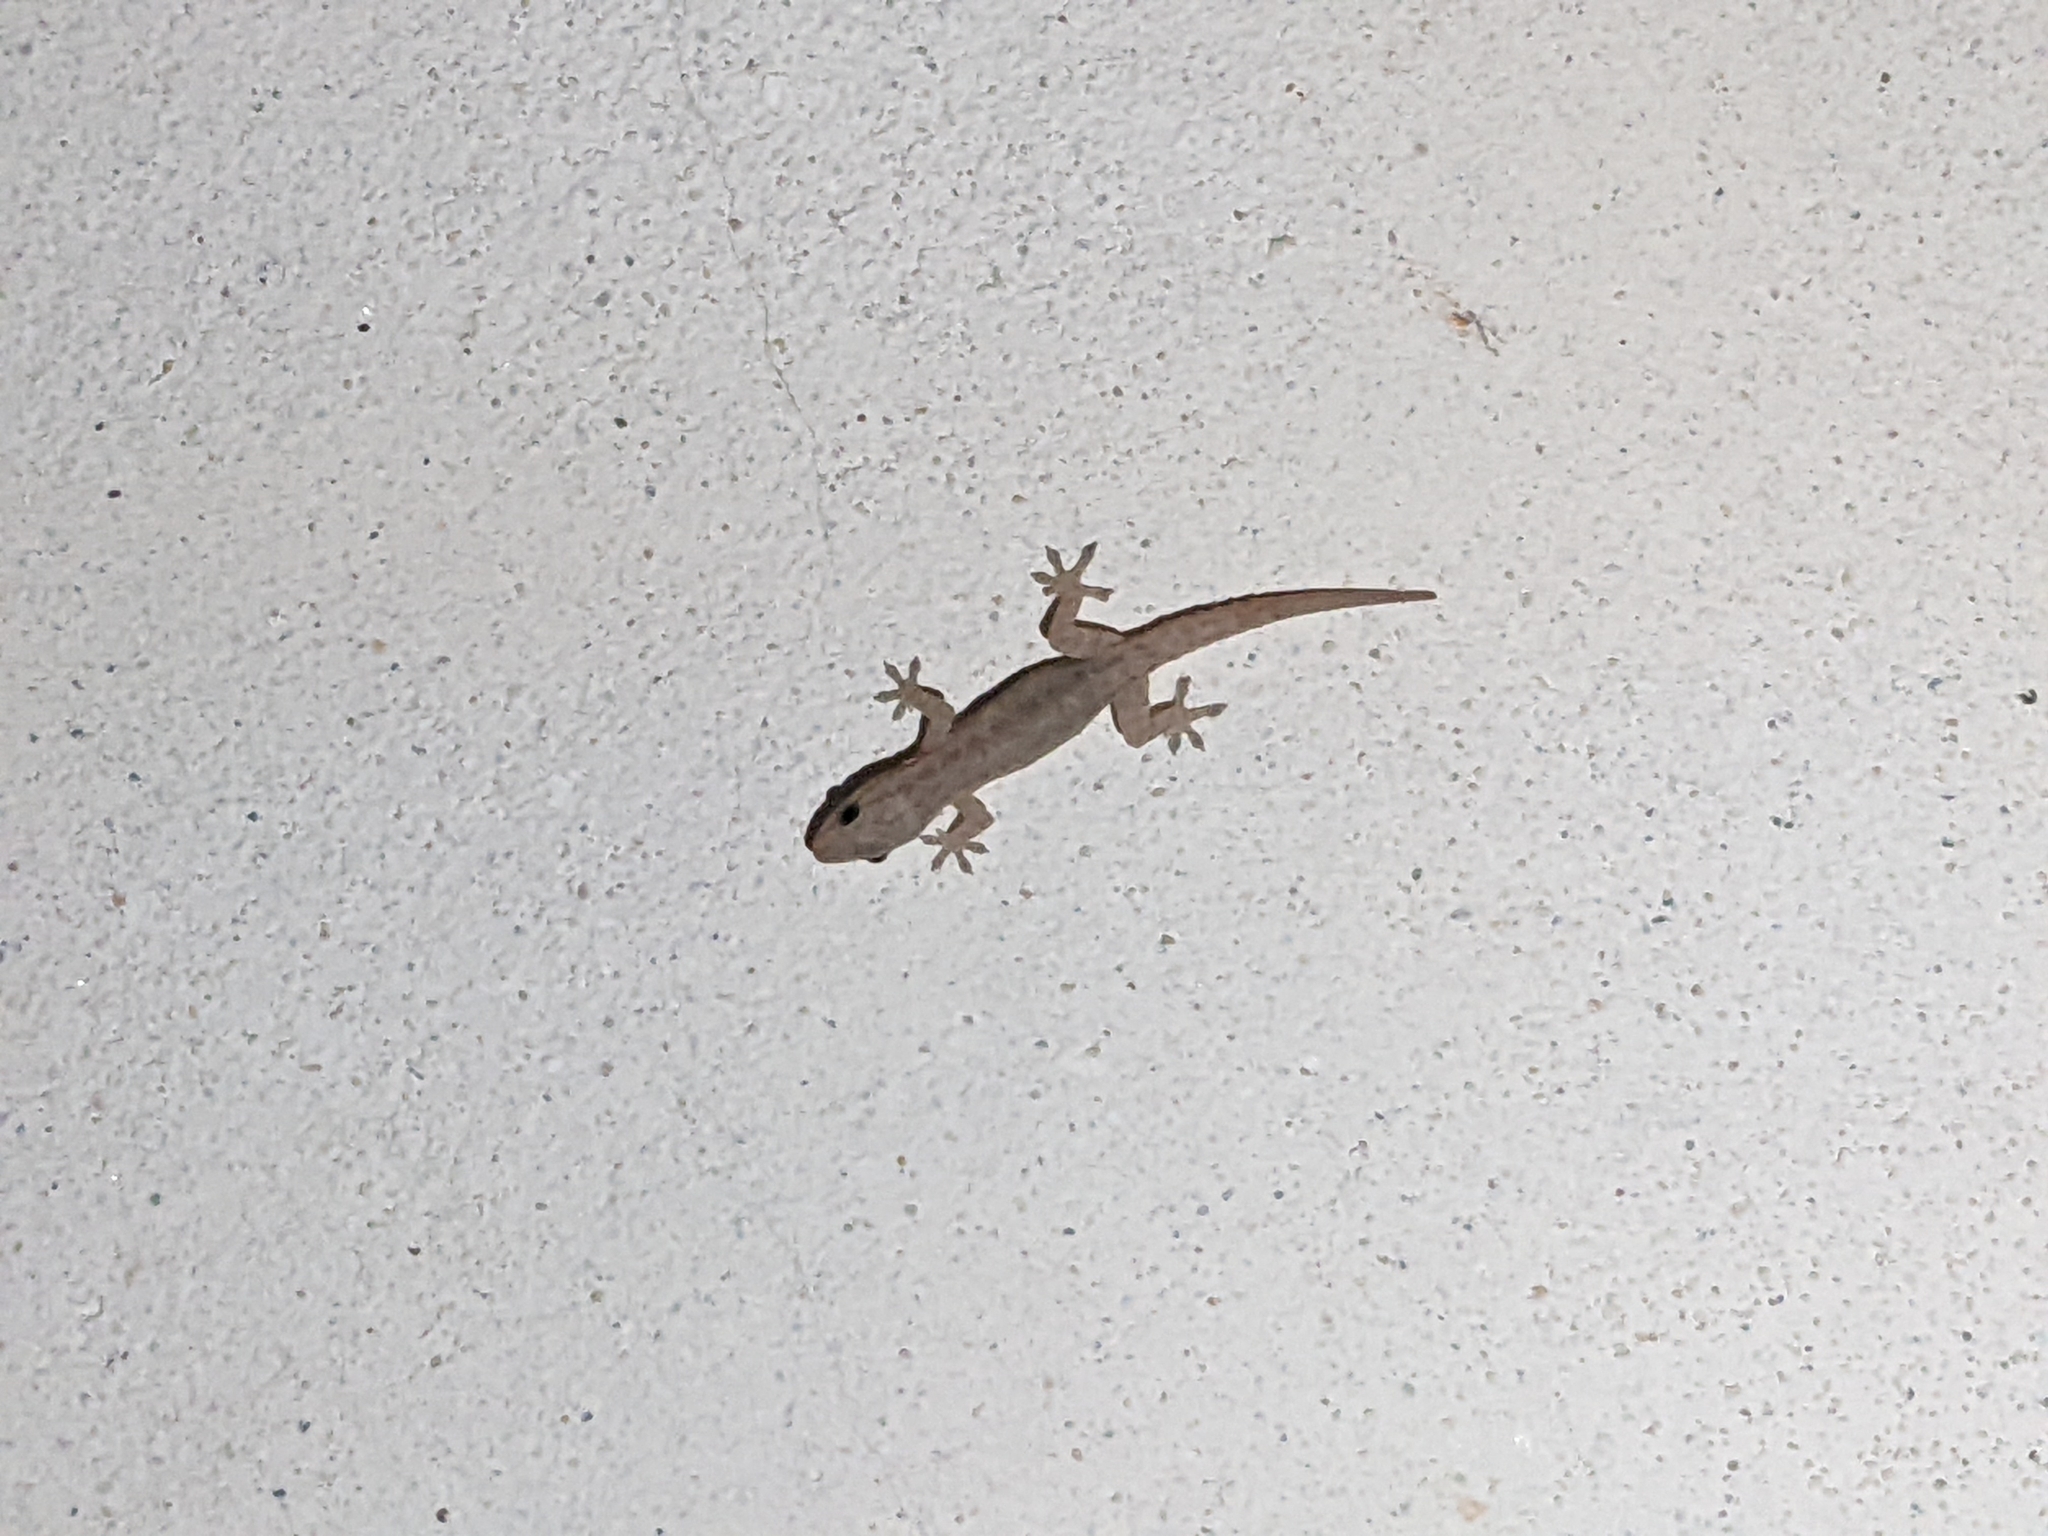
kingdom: Animalia
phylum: Chordata
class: Squamata
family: Gekkonidae
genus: Hemidactylus
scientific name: Hemidactylus frenatus
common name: Common house gecko
